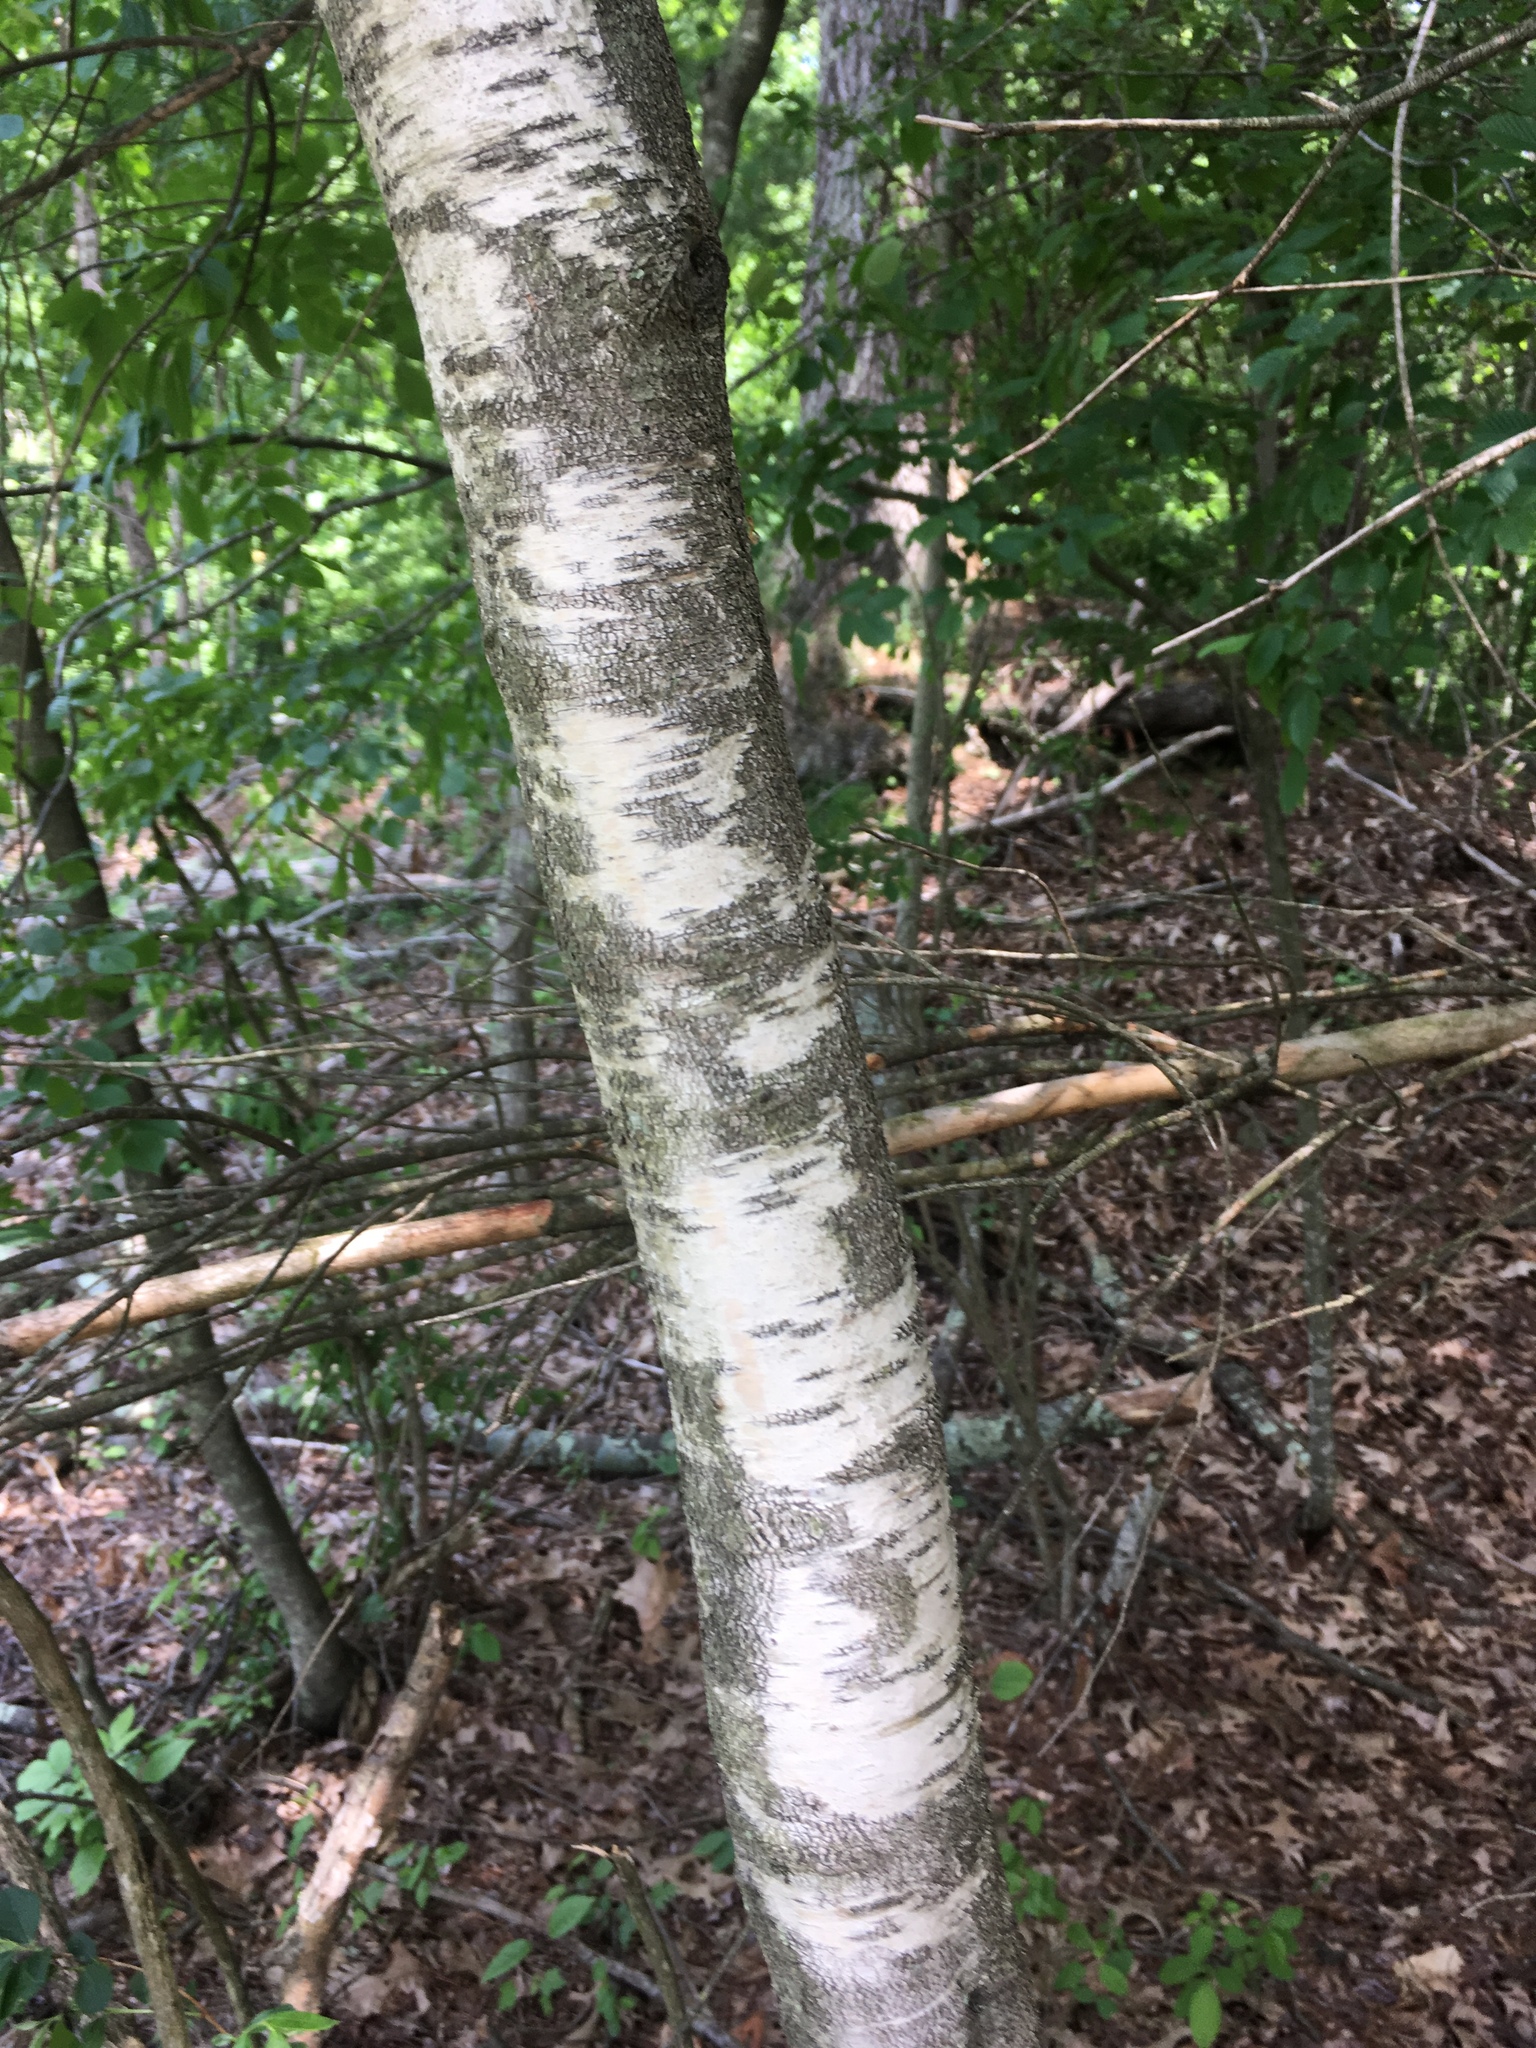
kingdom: Plantae
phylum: Tracheophyta
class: Magnoliopsida
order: Fagales
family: Betulaceae
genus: Betula
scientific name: Betula populifolia
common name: Fire birch
